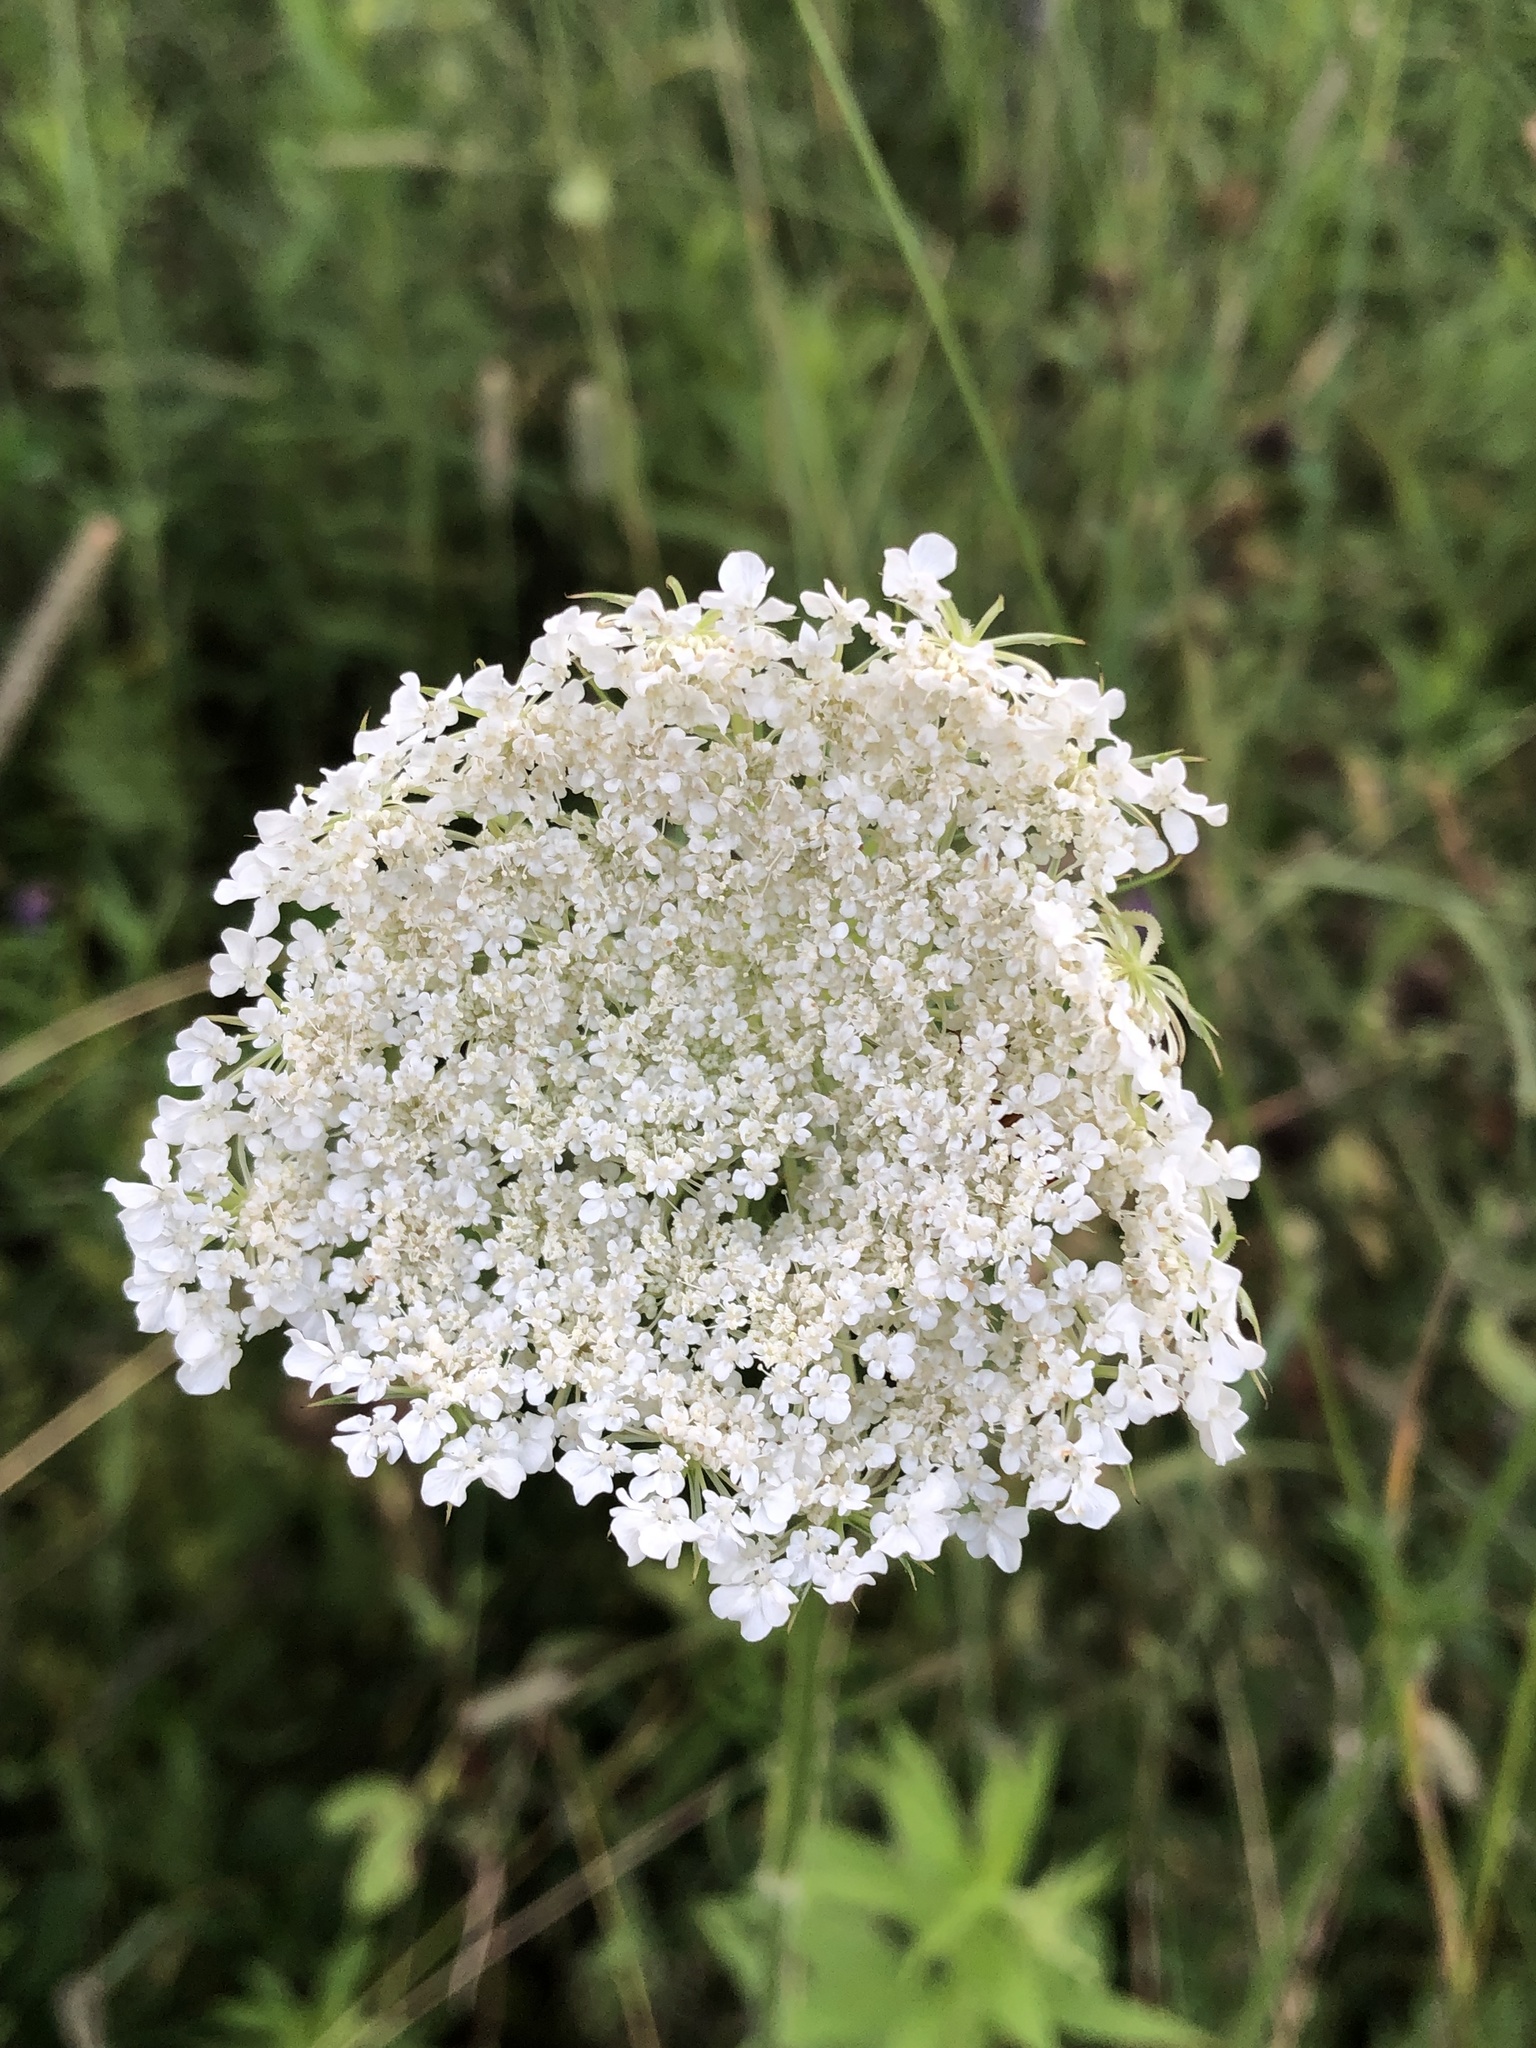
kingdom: Plantae
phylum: Tracheophyta
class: Magnoliopsida
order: Apiales
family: Apiaceae
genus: Daucus
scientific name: Daucus carota
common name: Wild carrot
